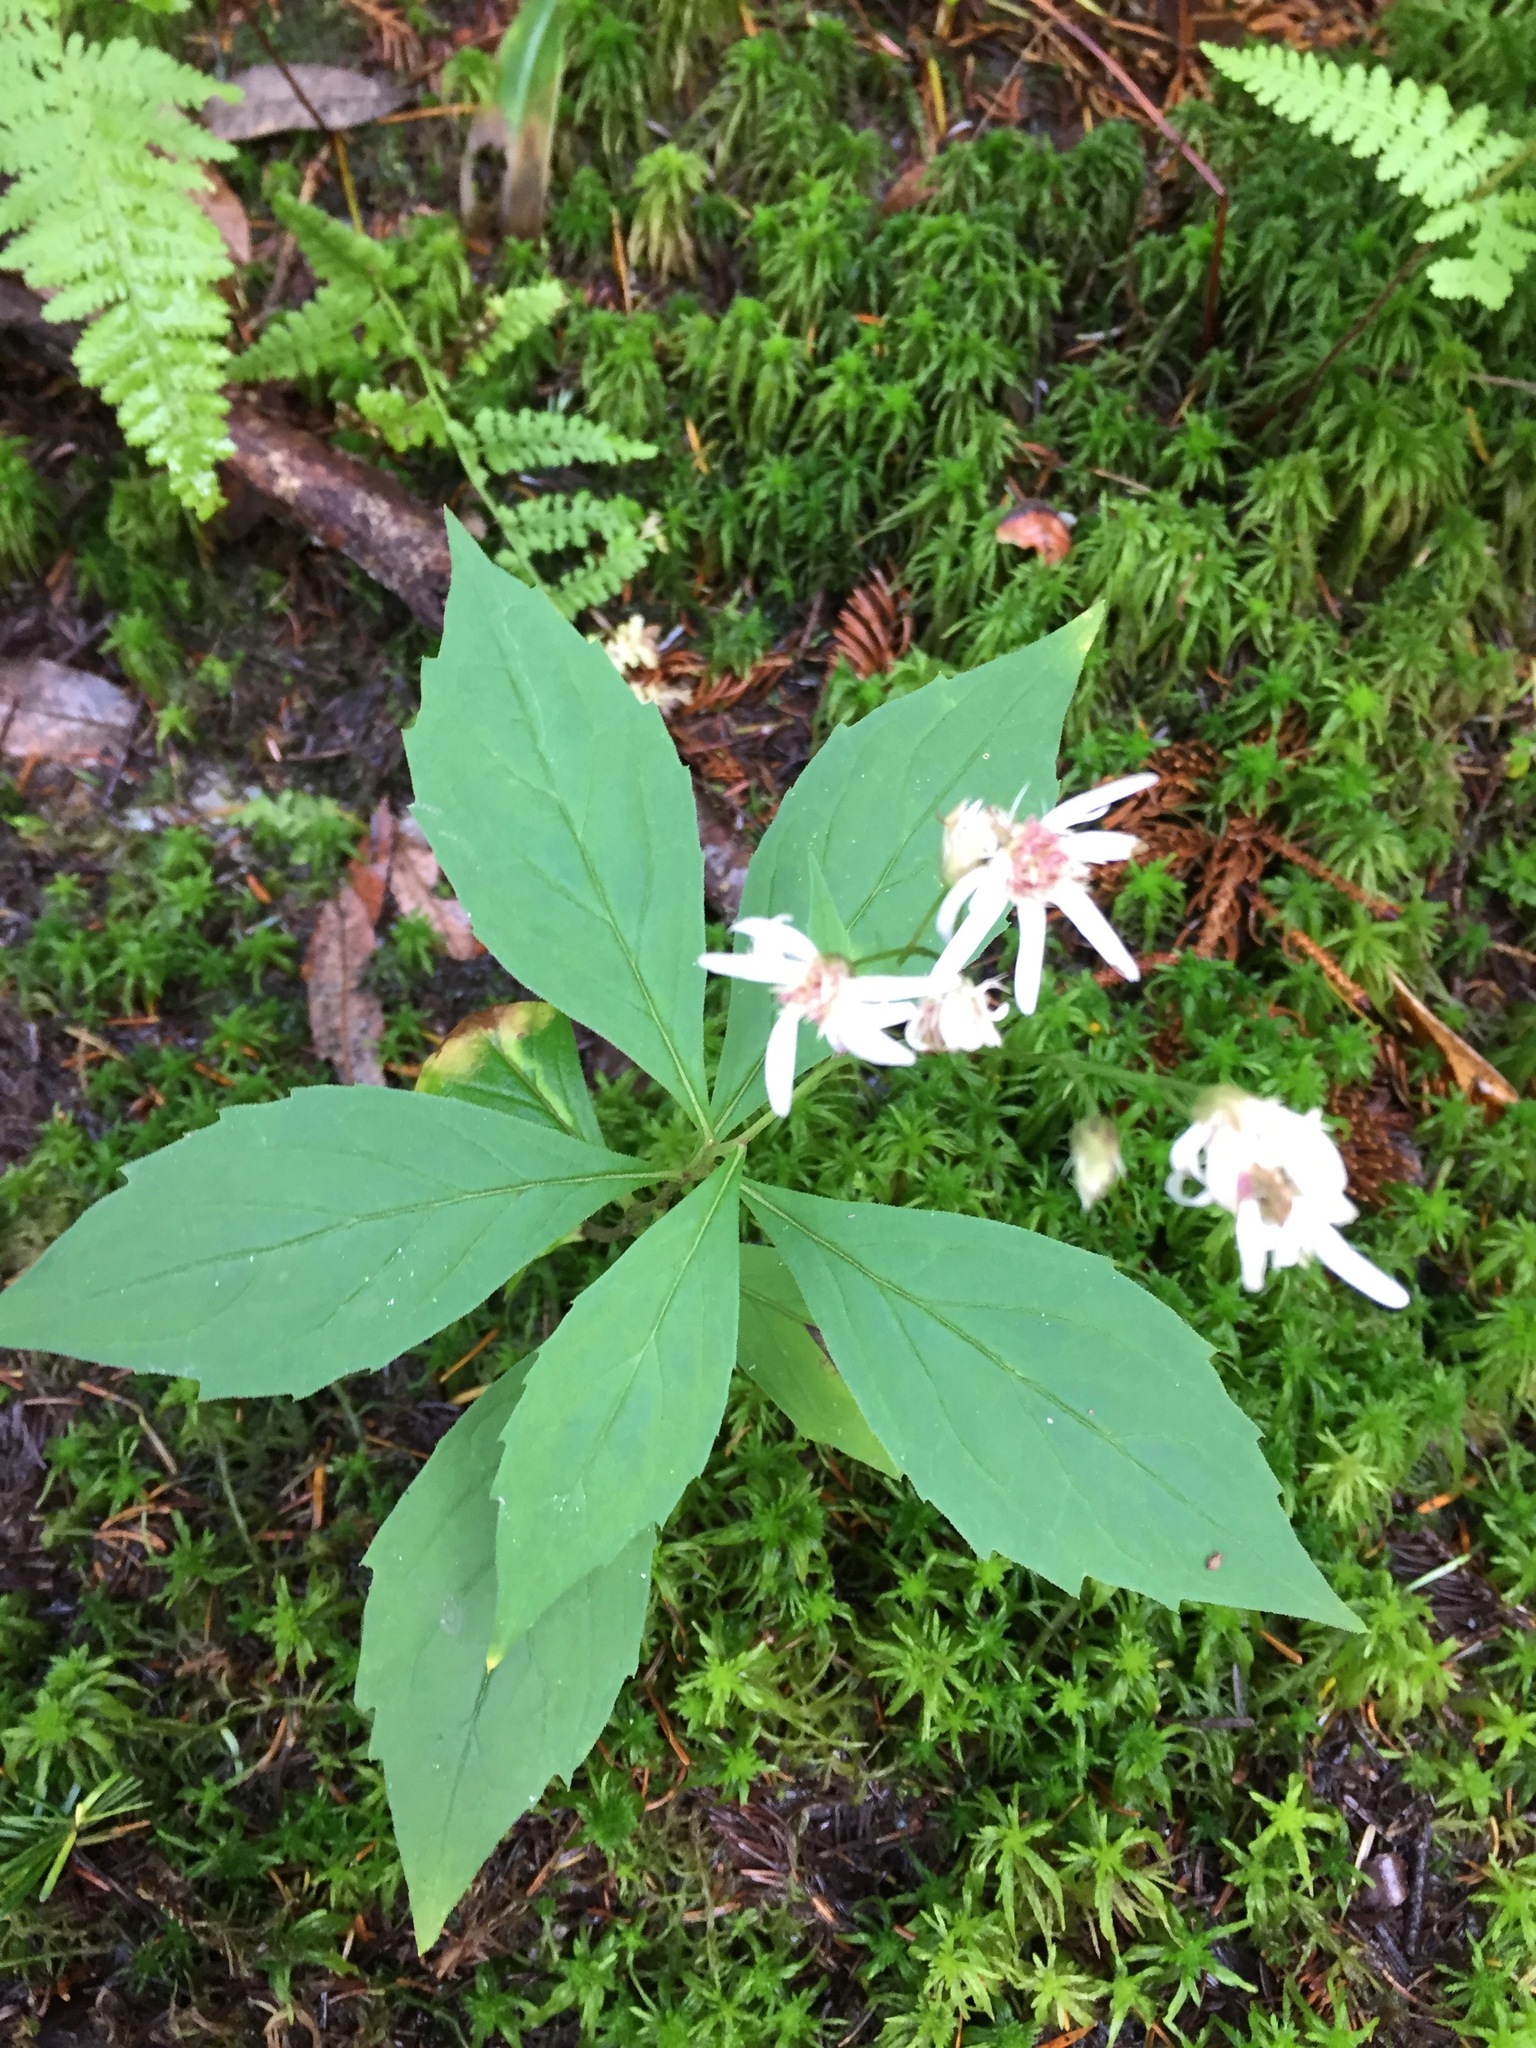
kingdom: Plantae
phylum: Tracheophyta
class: Magnoliopsida
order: Asterales
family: Asteraceae
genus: Oclemena
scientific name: Oclemena acuminata
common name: Mountain aster
